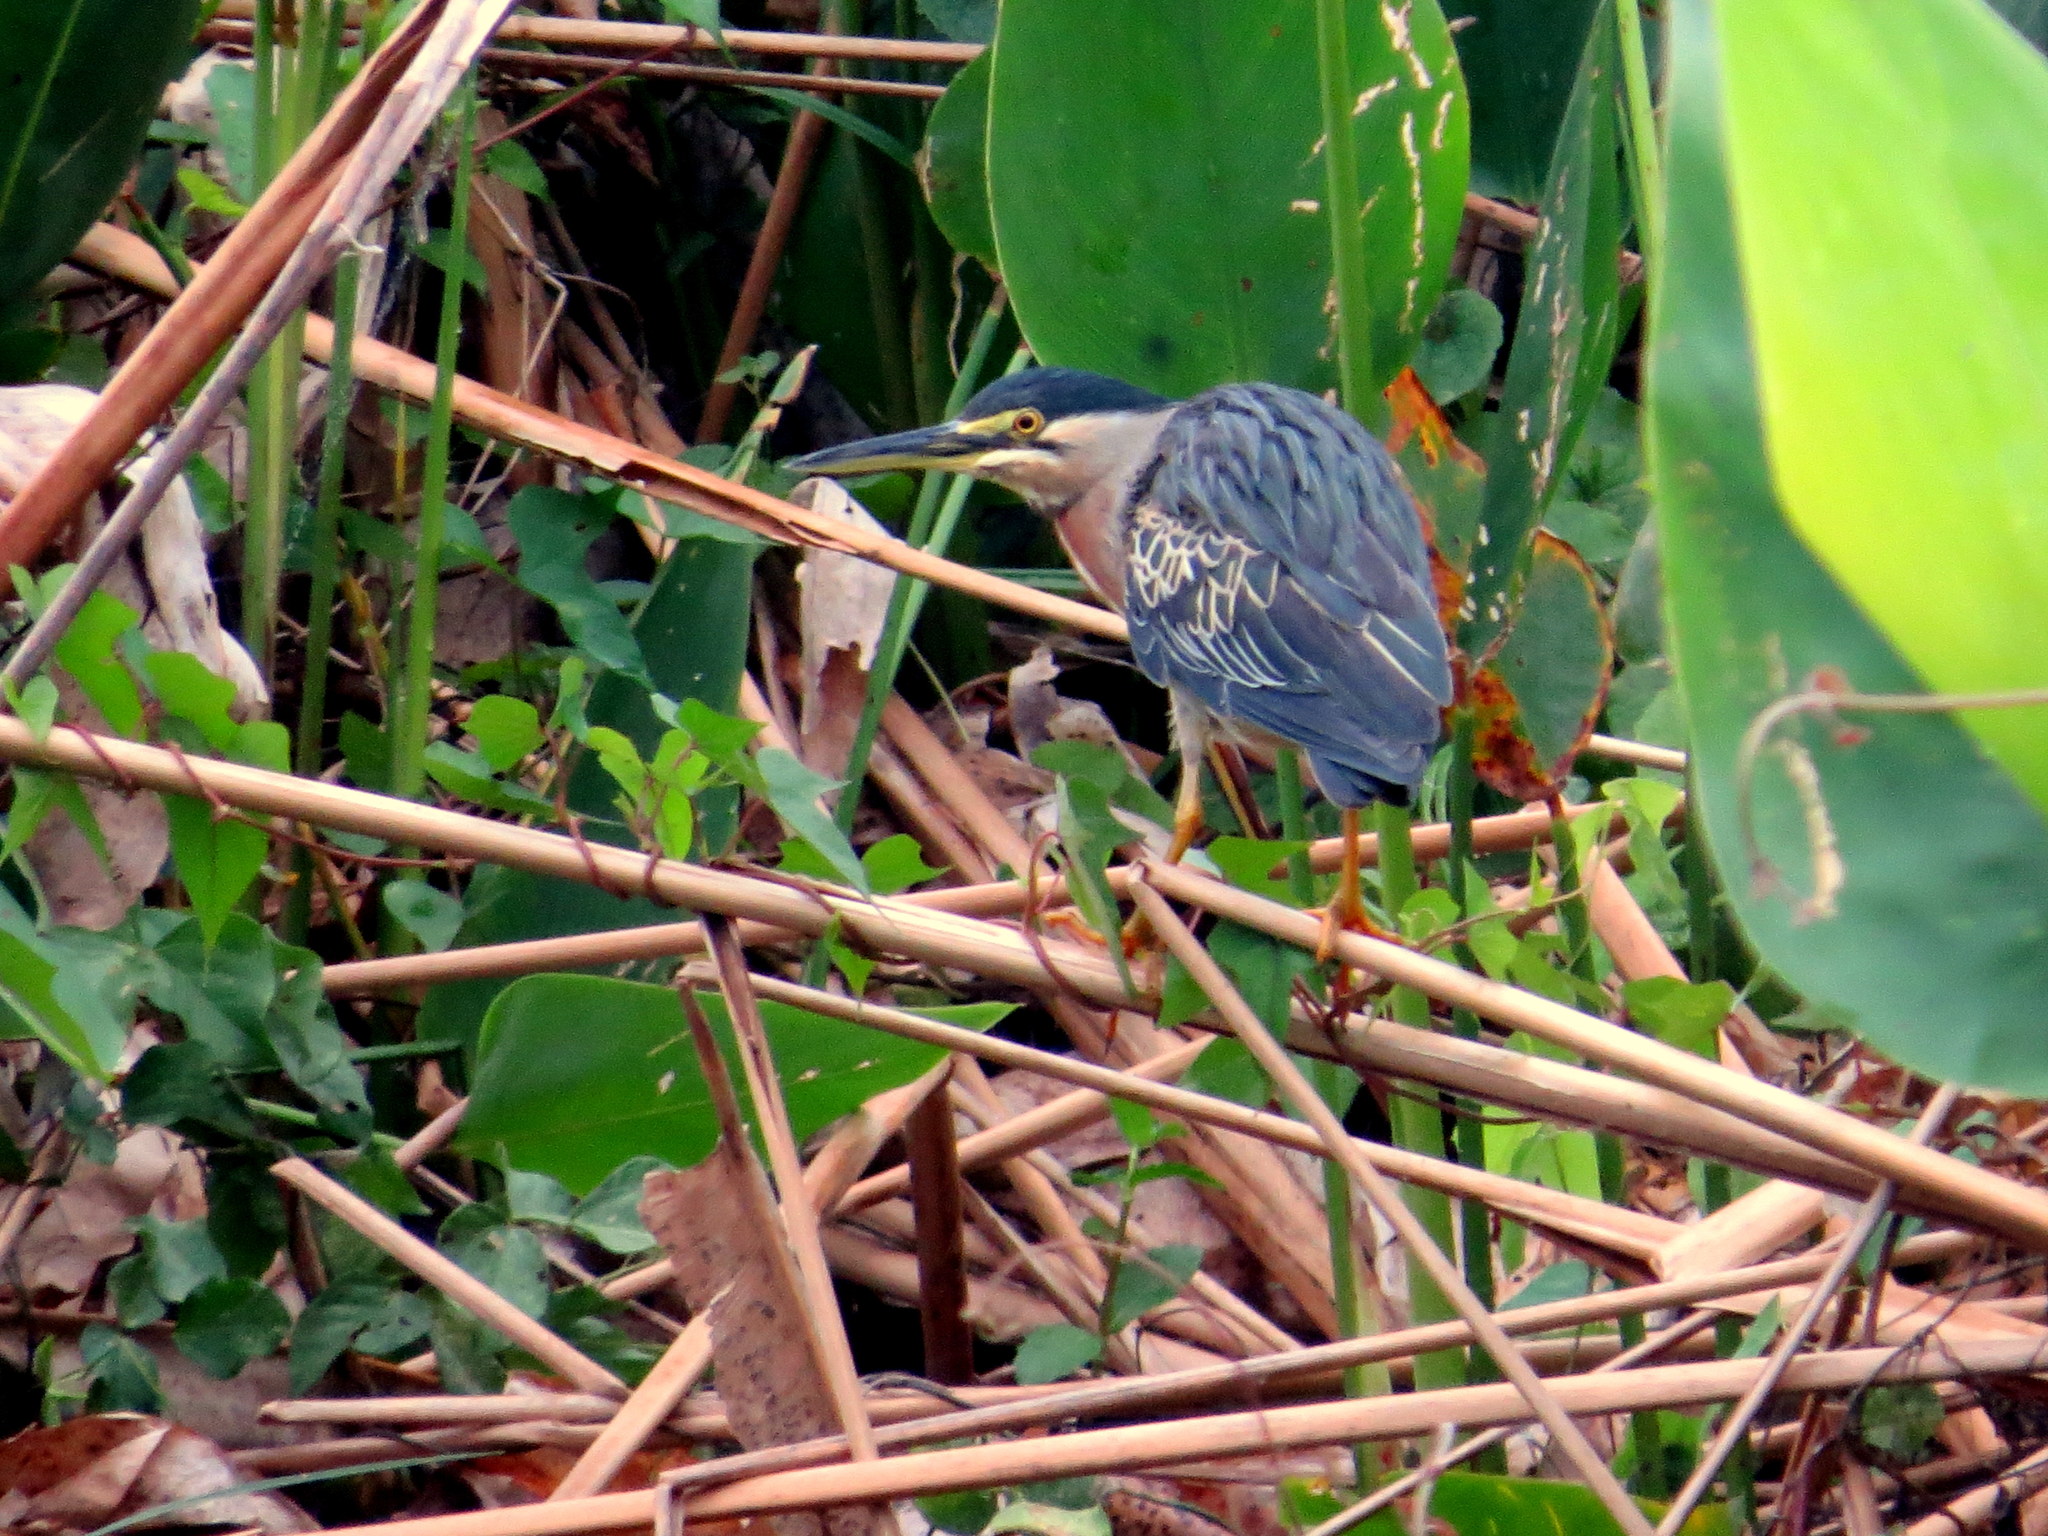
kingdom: Animalia
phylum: Chordata
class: Aves
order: Pelecaniformes
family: Ardeidae
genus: Butorides
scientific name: Butorides striata
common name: Striated heron
